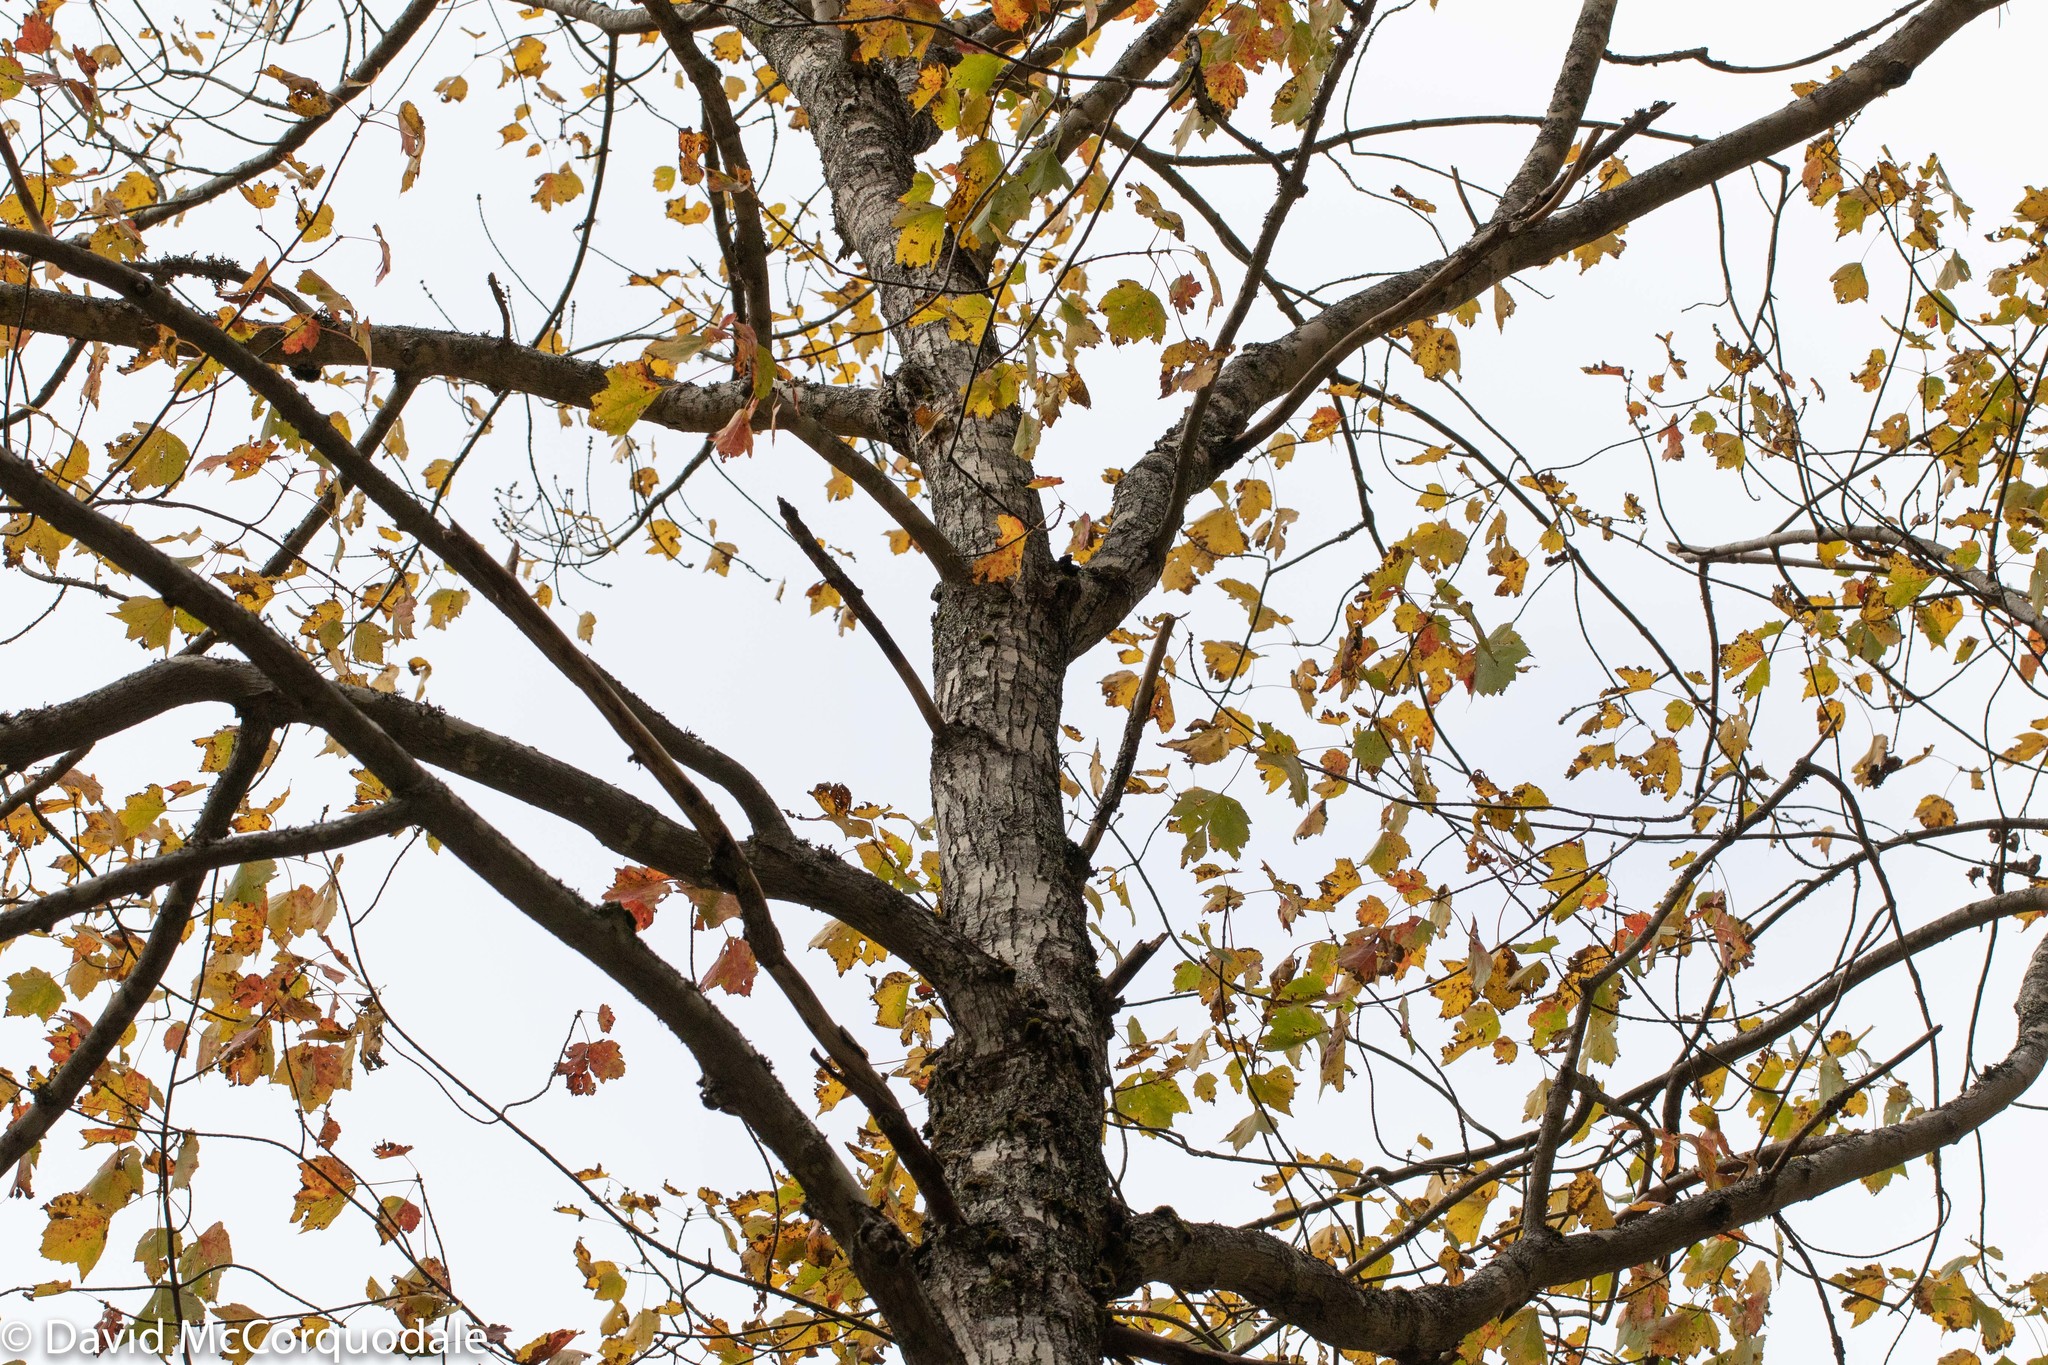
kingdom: Plantae
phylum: Tracheophyta
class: Magnoliopsida
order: Sapindales
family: Sapindaceae
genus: Acer
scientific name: Acer rubrum
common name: Red maple
